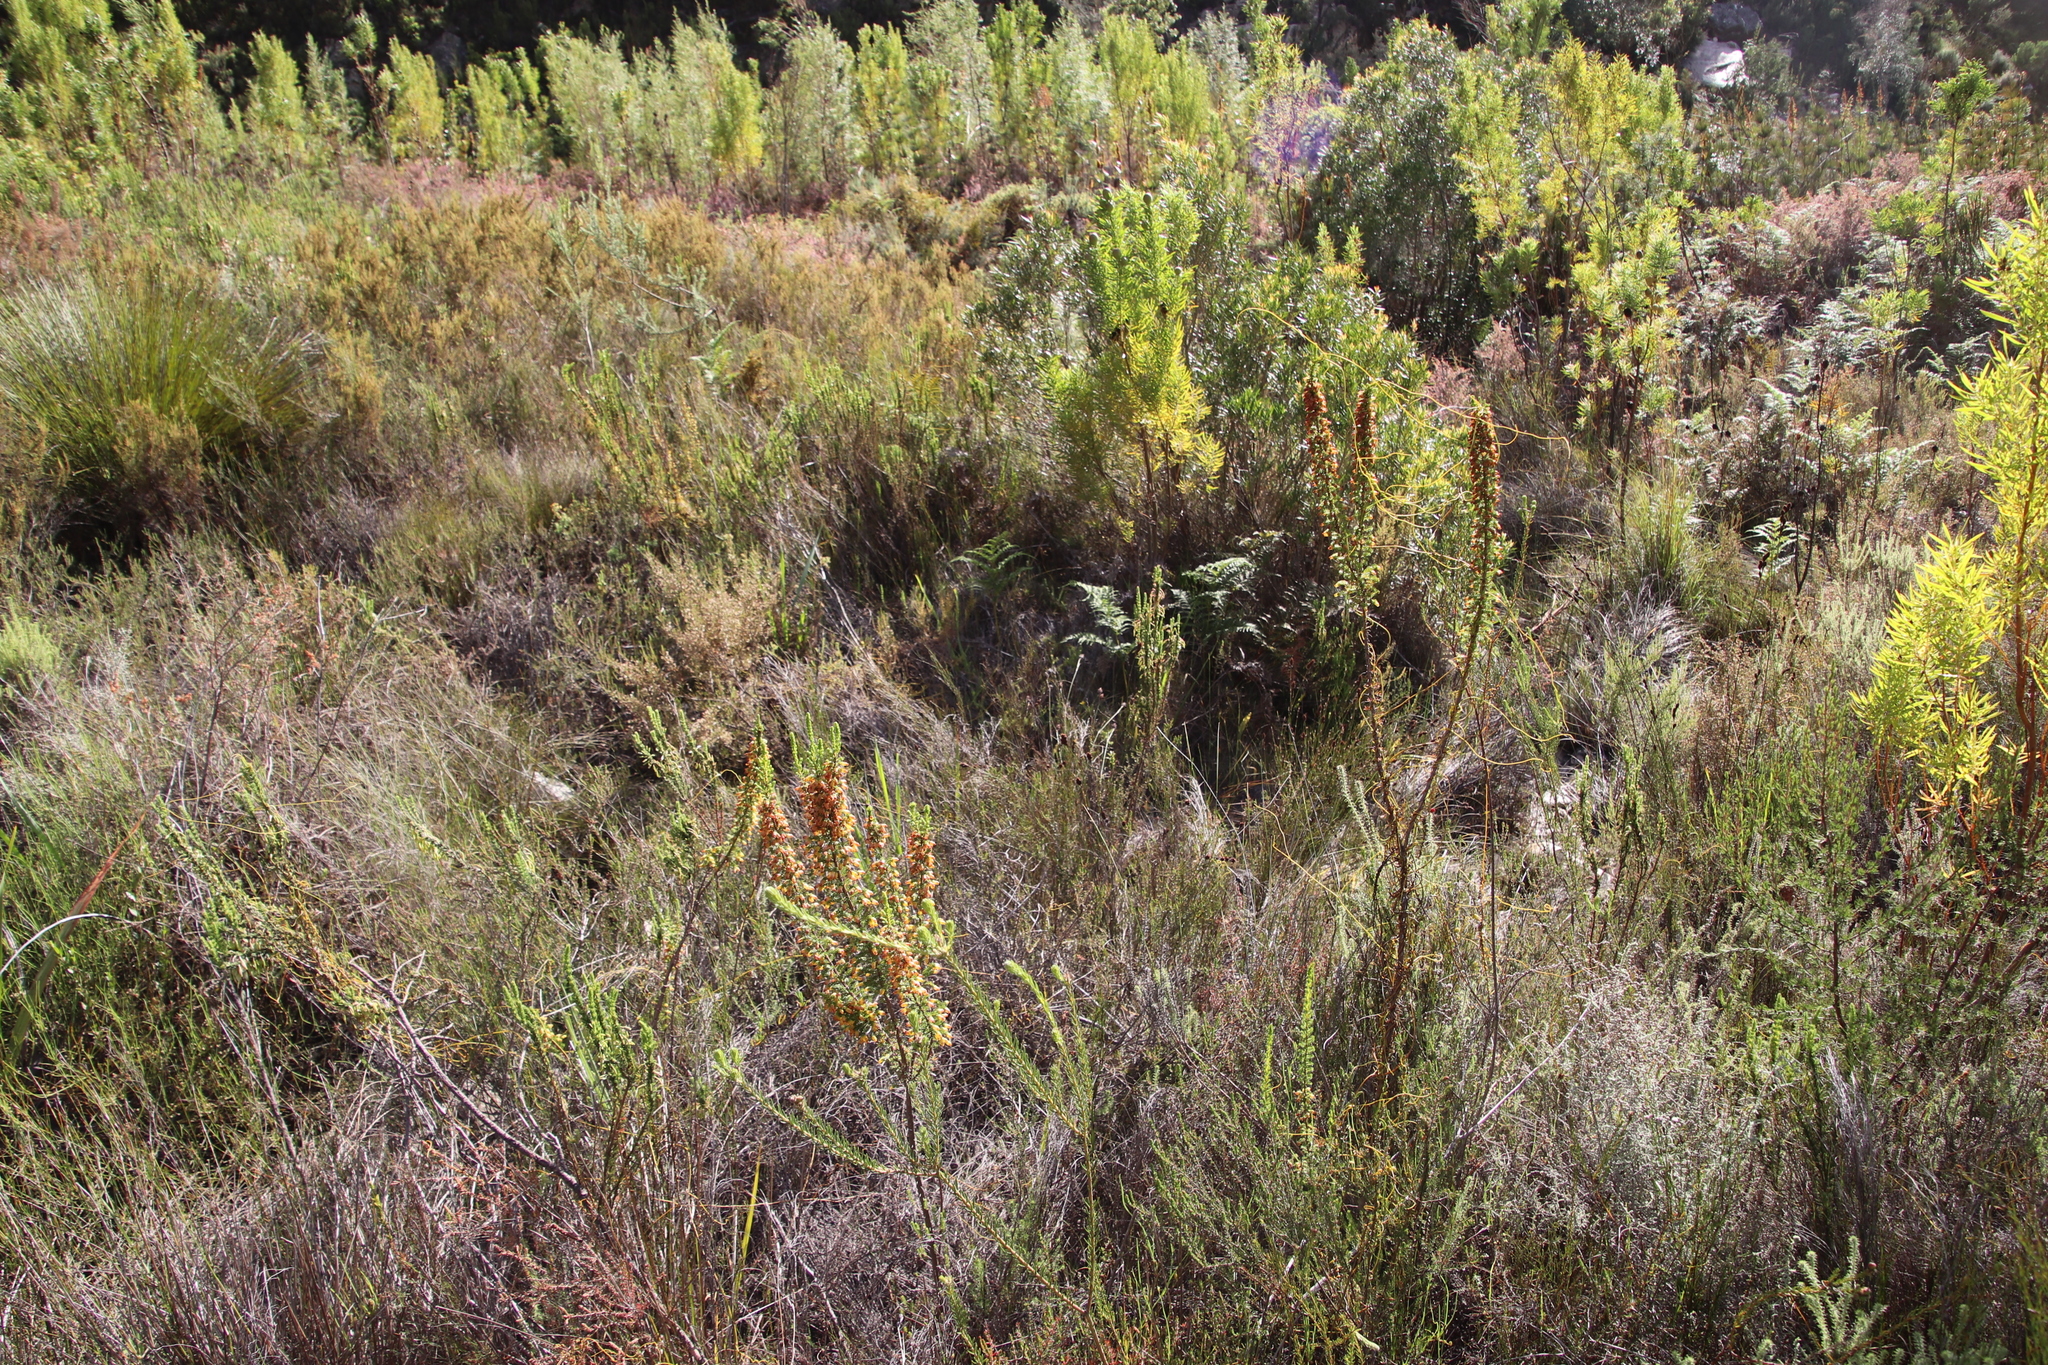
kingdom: Plantae
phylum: Tracheophyta
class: Magnoliopsida
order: Ericales
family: Ericaceae
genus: Erica
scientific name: Erica blandfordia
